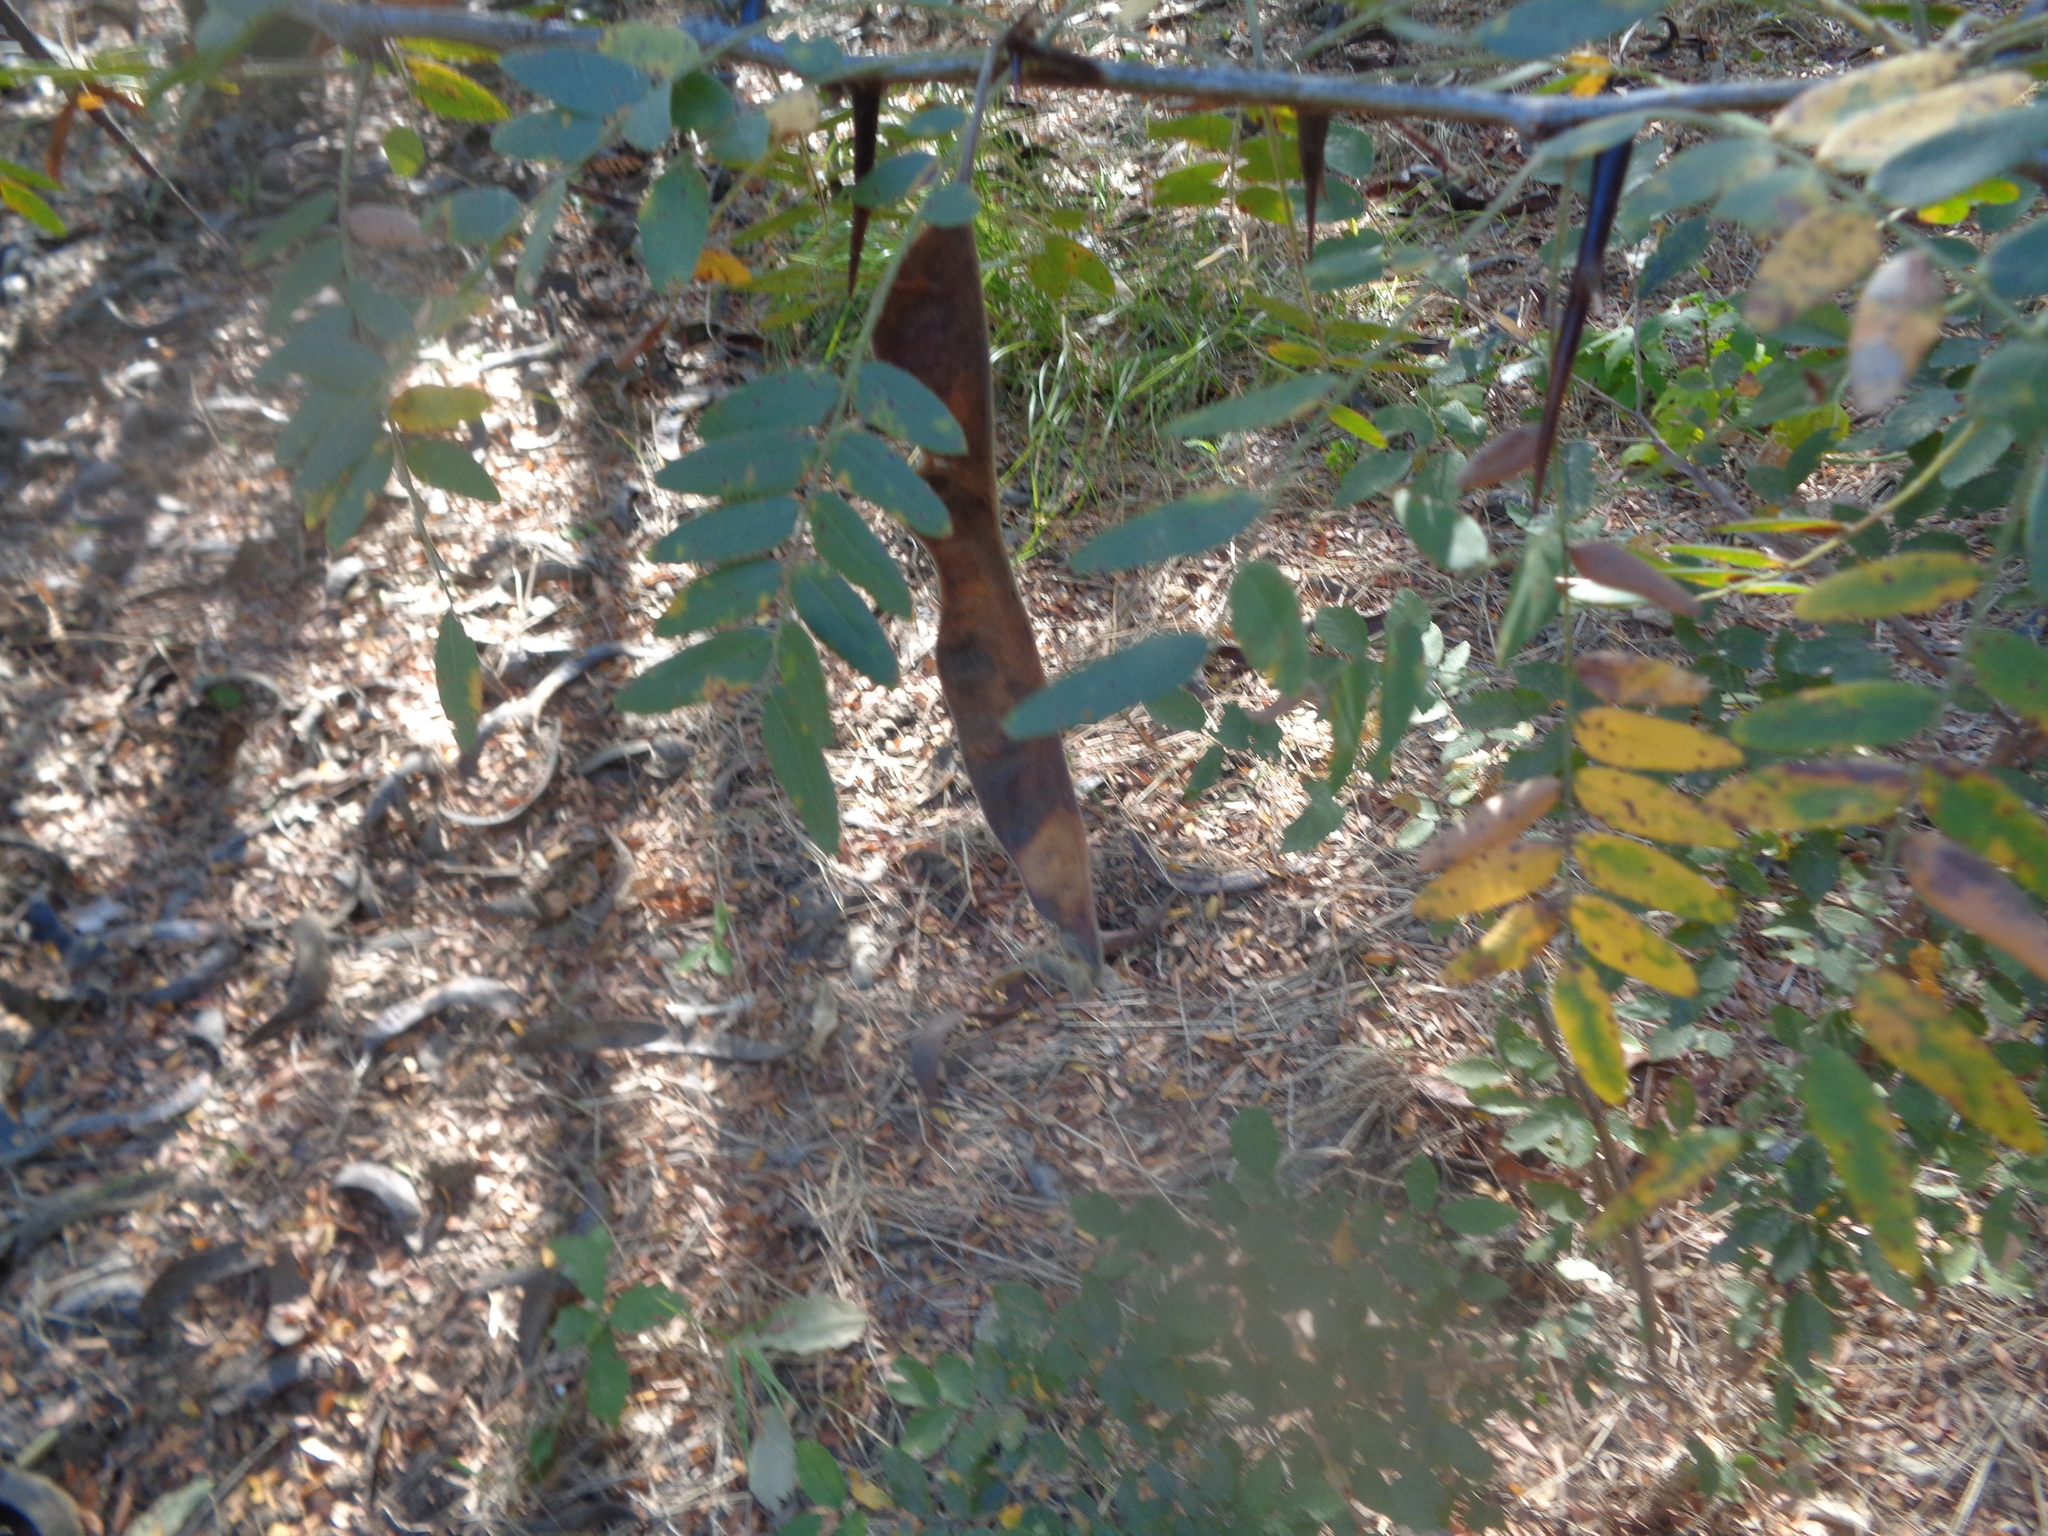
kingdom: Plantae
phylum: Tracheophyta
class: Magnoliopsida
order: Fabales
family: Fabaceae
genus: Gleditsia
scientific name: Gleditsia triacanthos
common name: Common honeylocust
